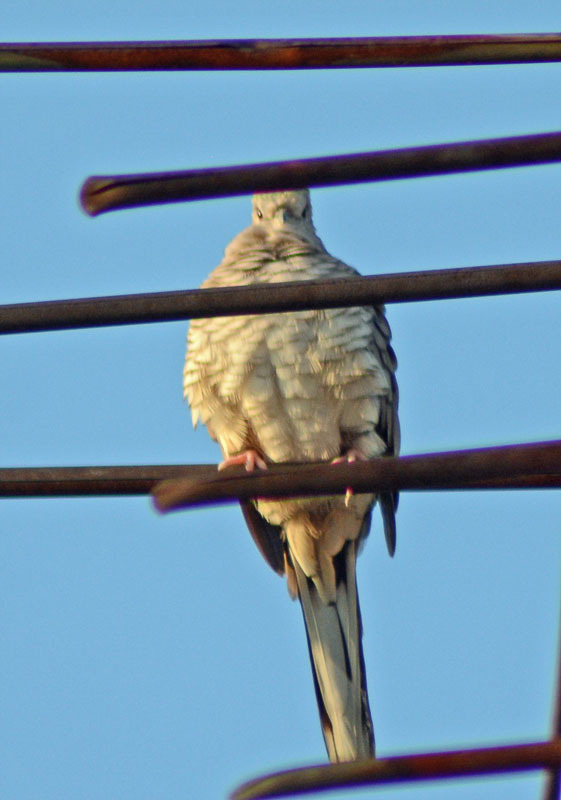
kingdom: Animalia
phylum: Chordata
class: Aves
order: Columbiformes
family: Columbidae
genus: Columbina
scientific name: Columbina inca
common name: Inca dove
